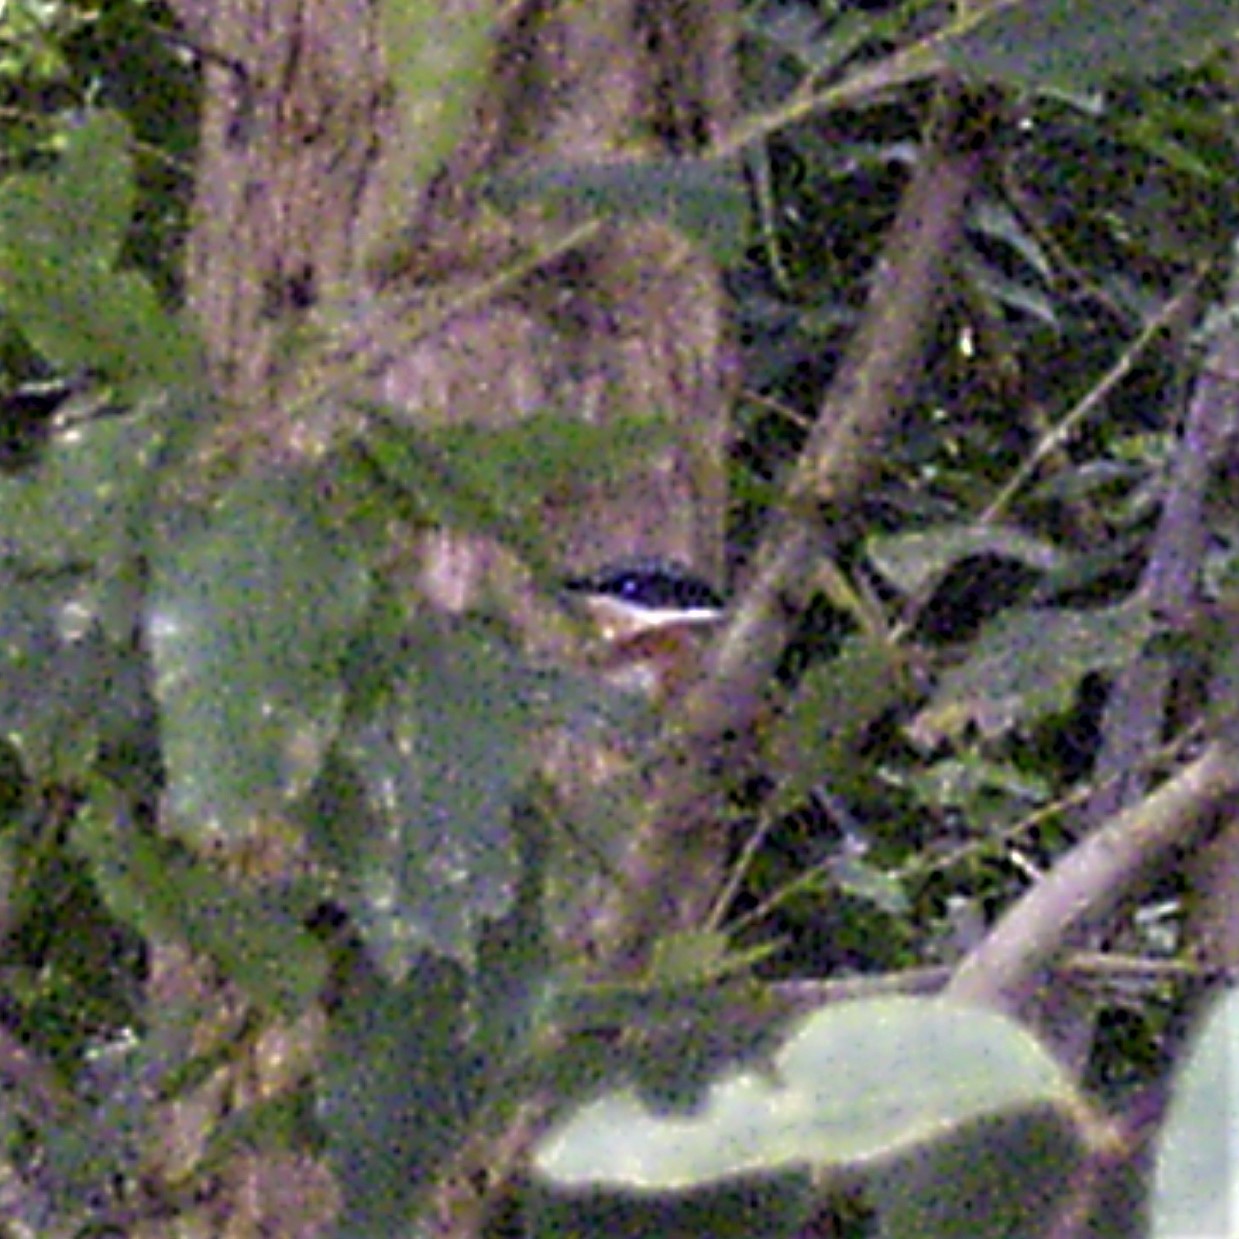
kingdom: Animalia
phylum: Chordata
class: Aves
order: Passeriformes
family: Platysteiridae
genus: Batis
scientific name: Batis capensis
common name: Cape batis
